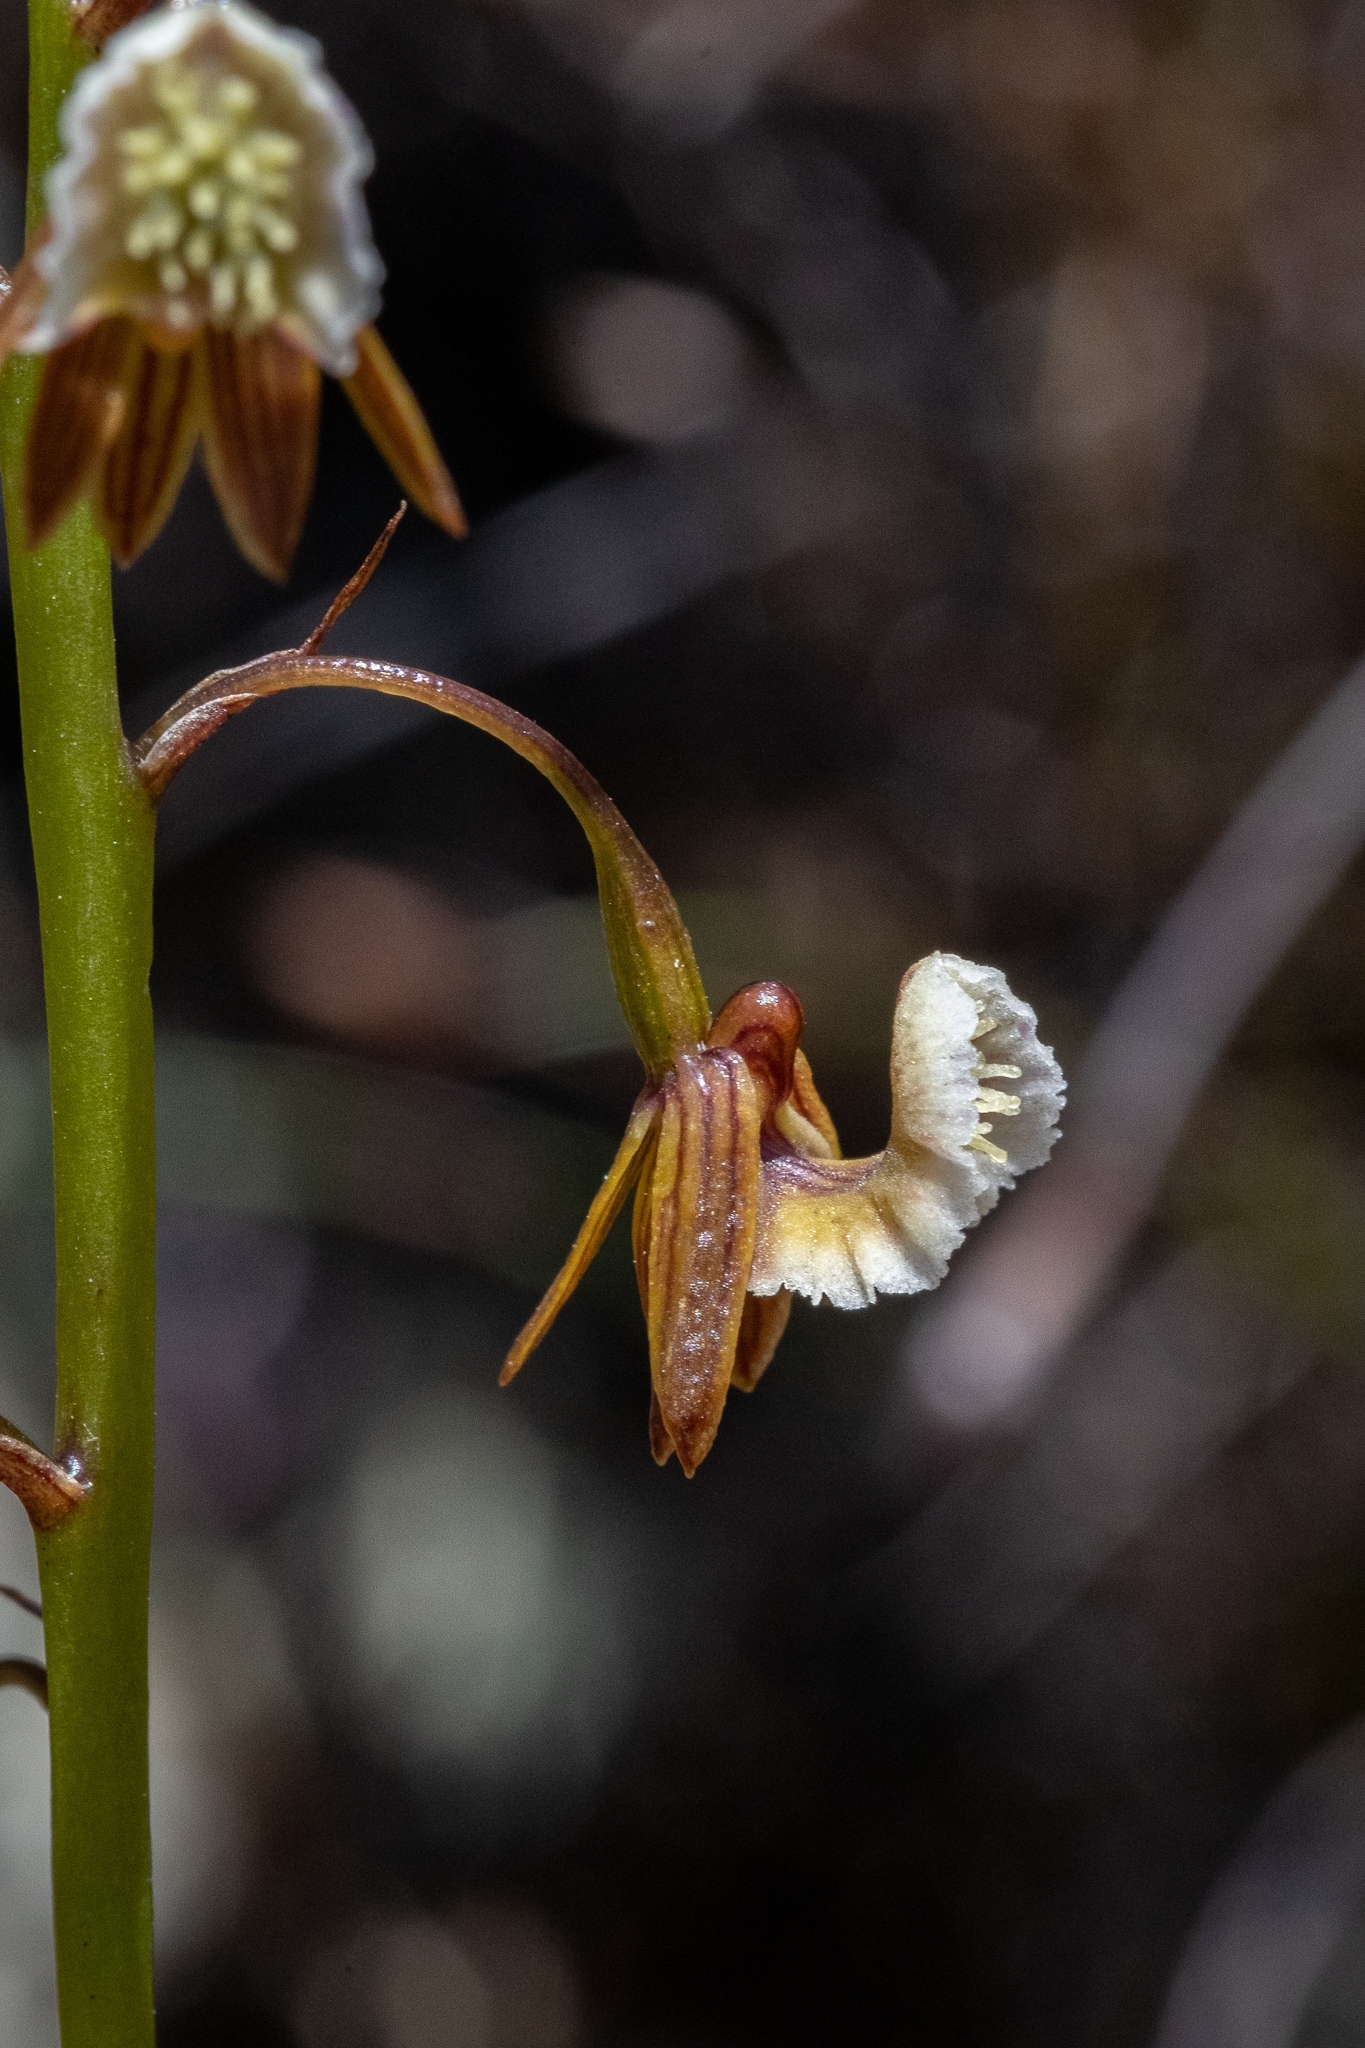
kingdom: Plantae
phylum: Tracheophyta
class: Liliopsida
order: Asparagales
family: Orchidaceae
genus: Eulophia
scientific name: Eulophia bolusii
